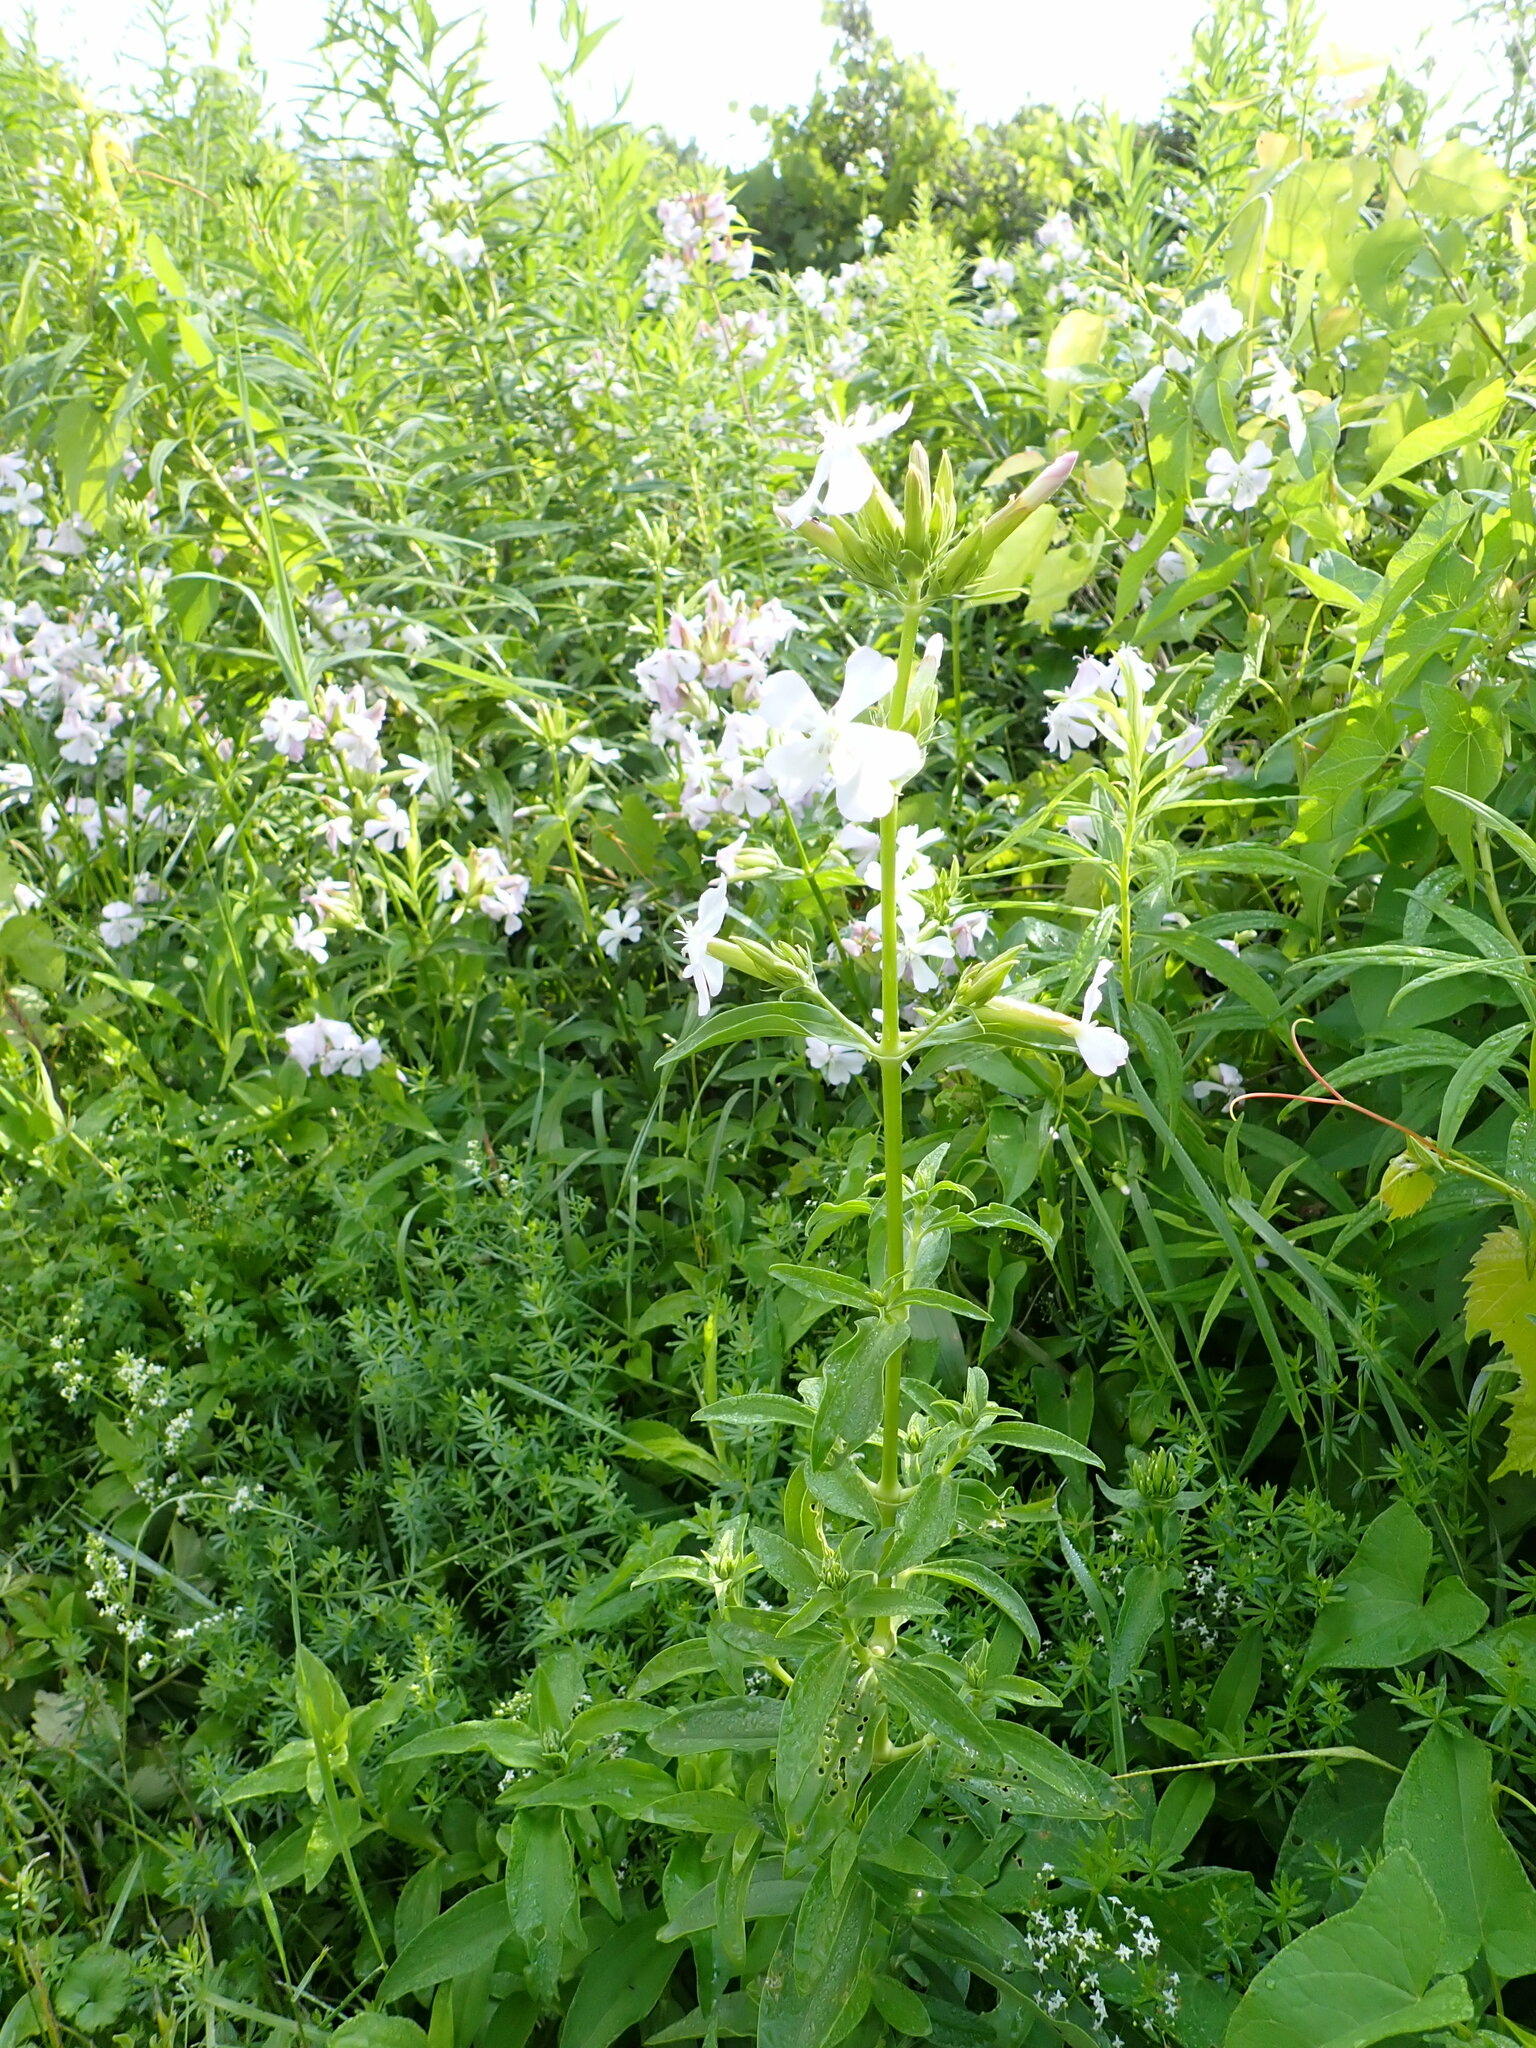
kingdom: Plantae
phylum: Tracheophyta
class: Magnoliopsida
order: Caryophyllales
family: Caryophyllaceae
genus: Saponaria
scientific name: Saponaria officinalis
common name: Soapwort
